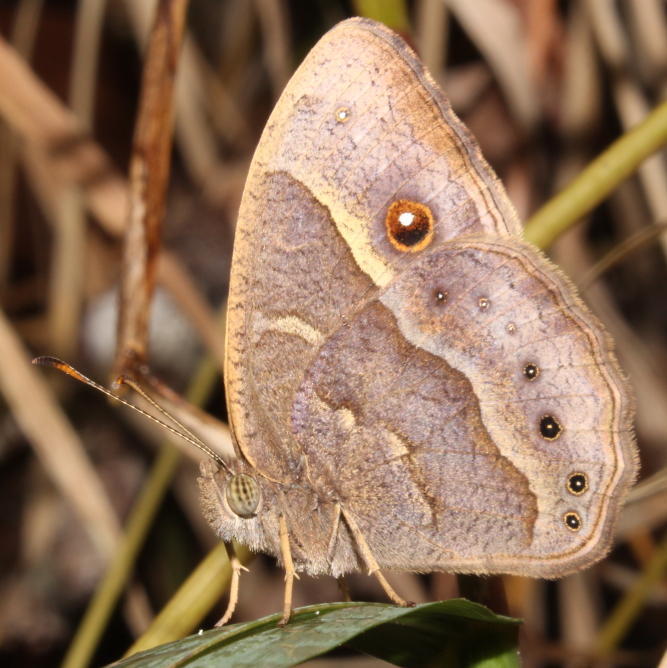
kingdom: Animalia
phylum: Arthropoda
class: Insecta
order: Lepidoptera
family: Nymphalidae
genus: Mycalesis
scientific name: Mycalesis anynana
